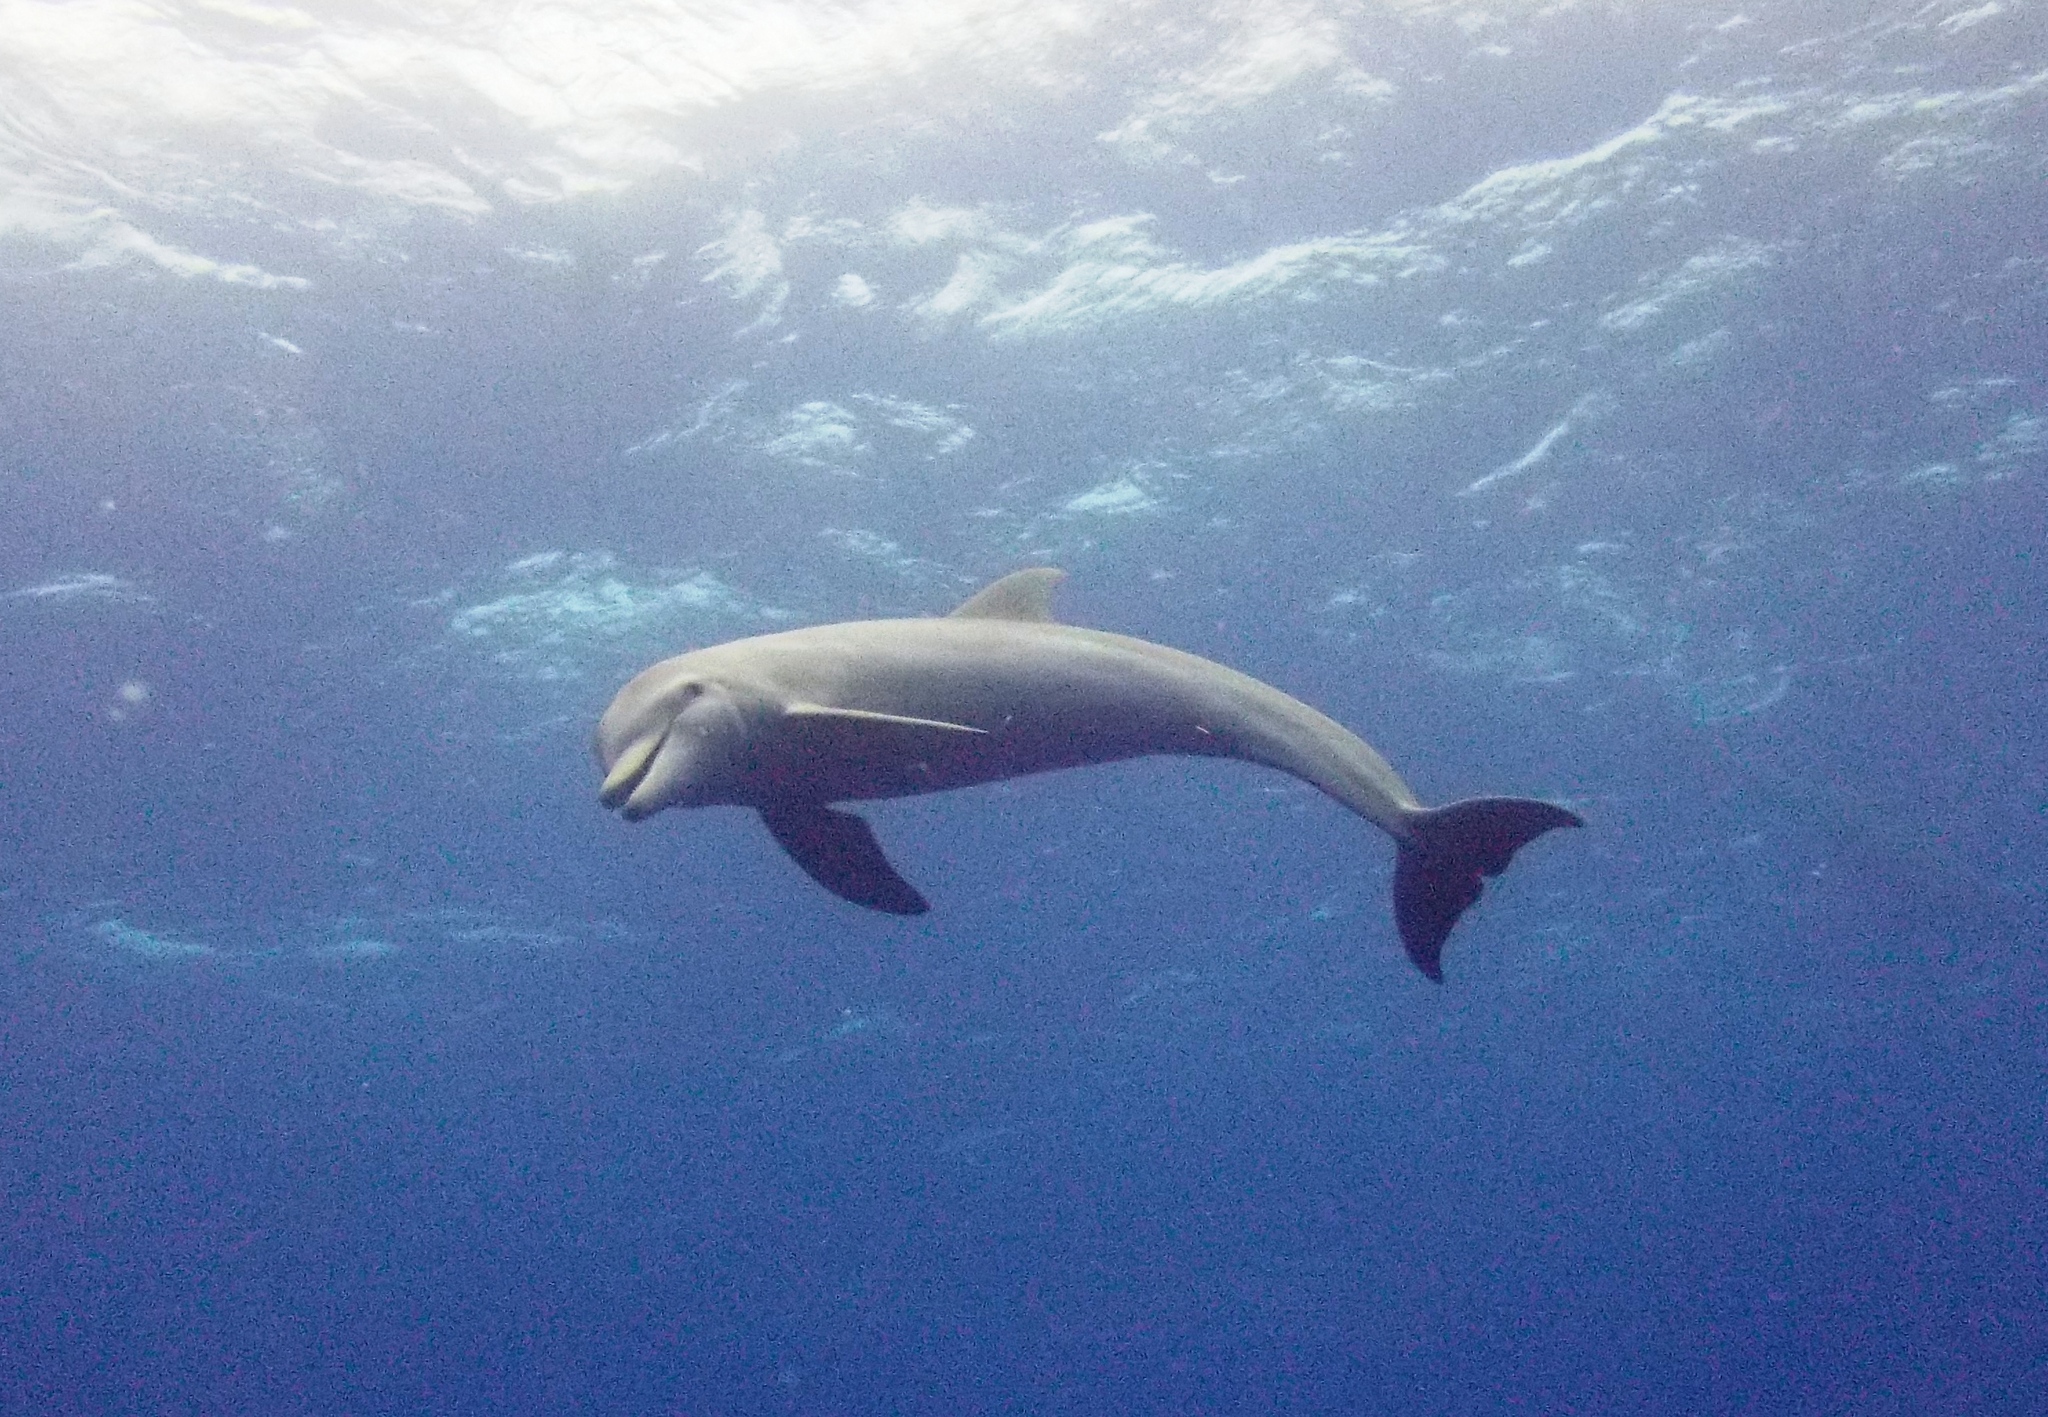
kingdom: Animalia
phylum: Chordata
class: Mammalia
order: Cetacea
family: Delphinidae
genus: Tursiops
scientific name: Tursiops truncatus
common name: Bottlenose dolphin
